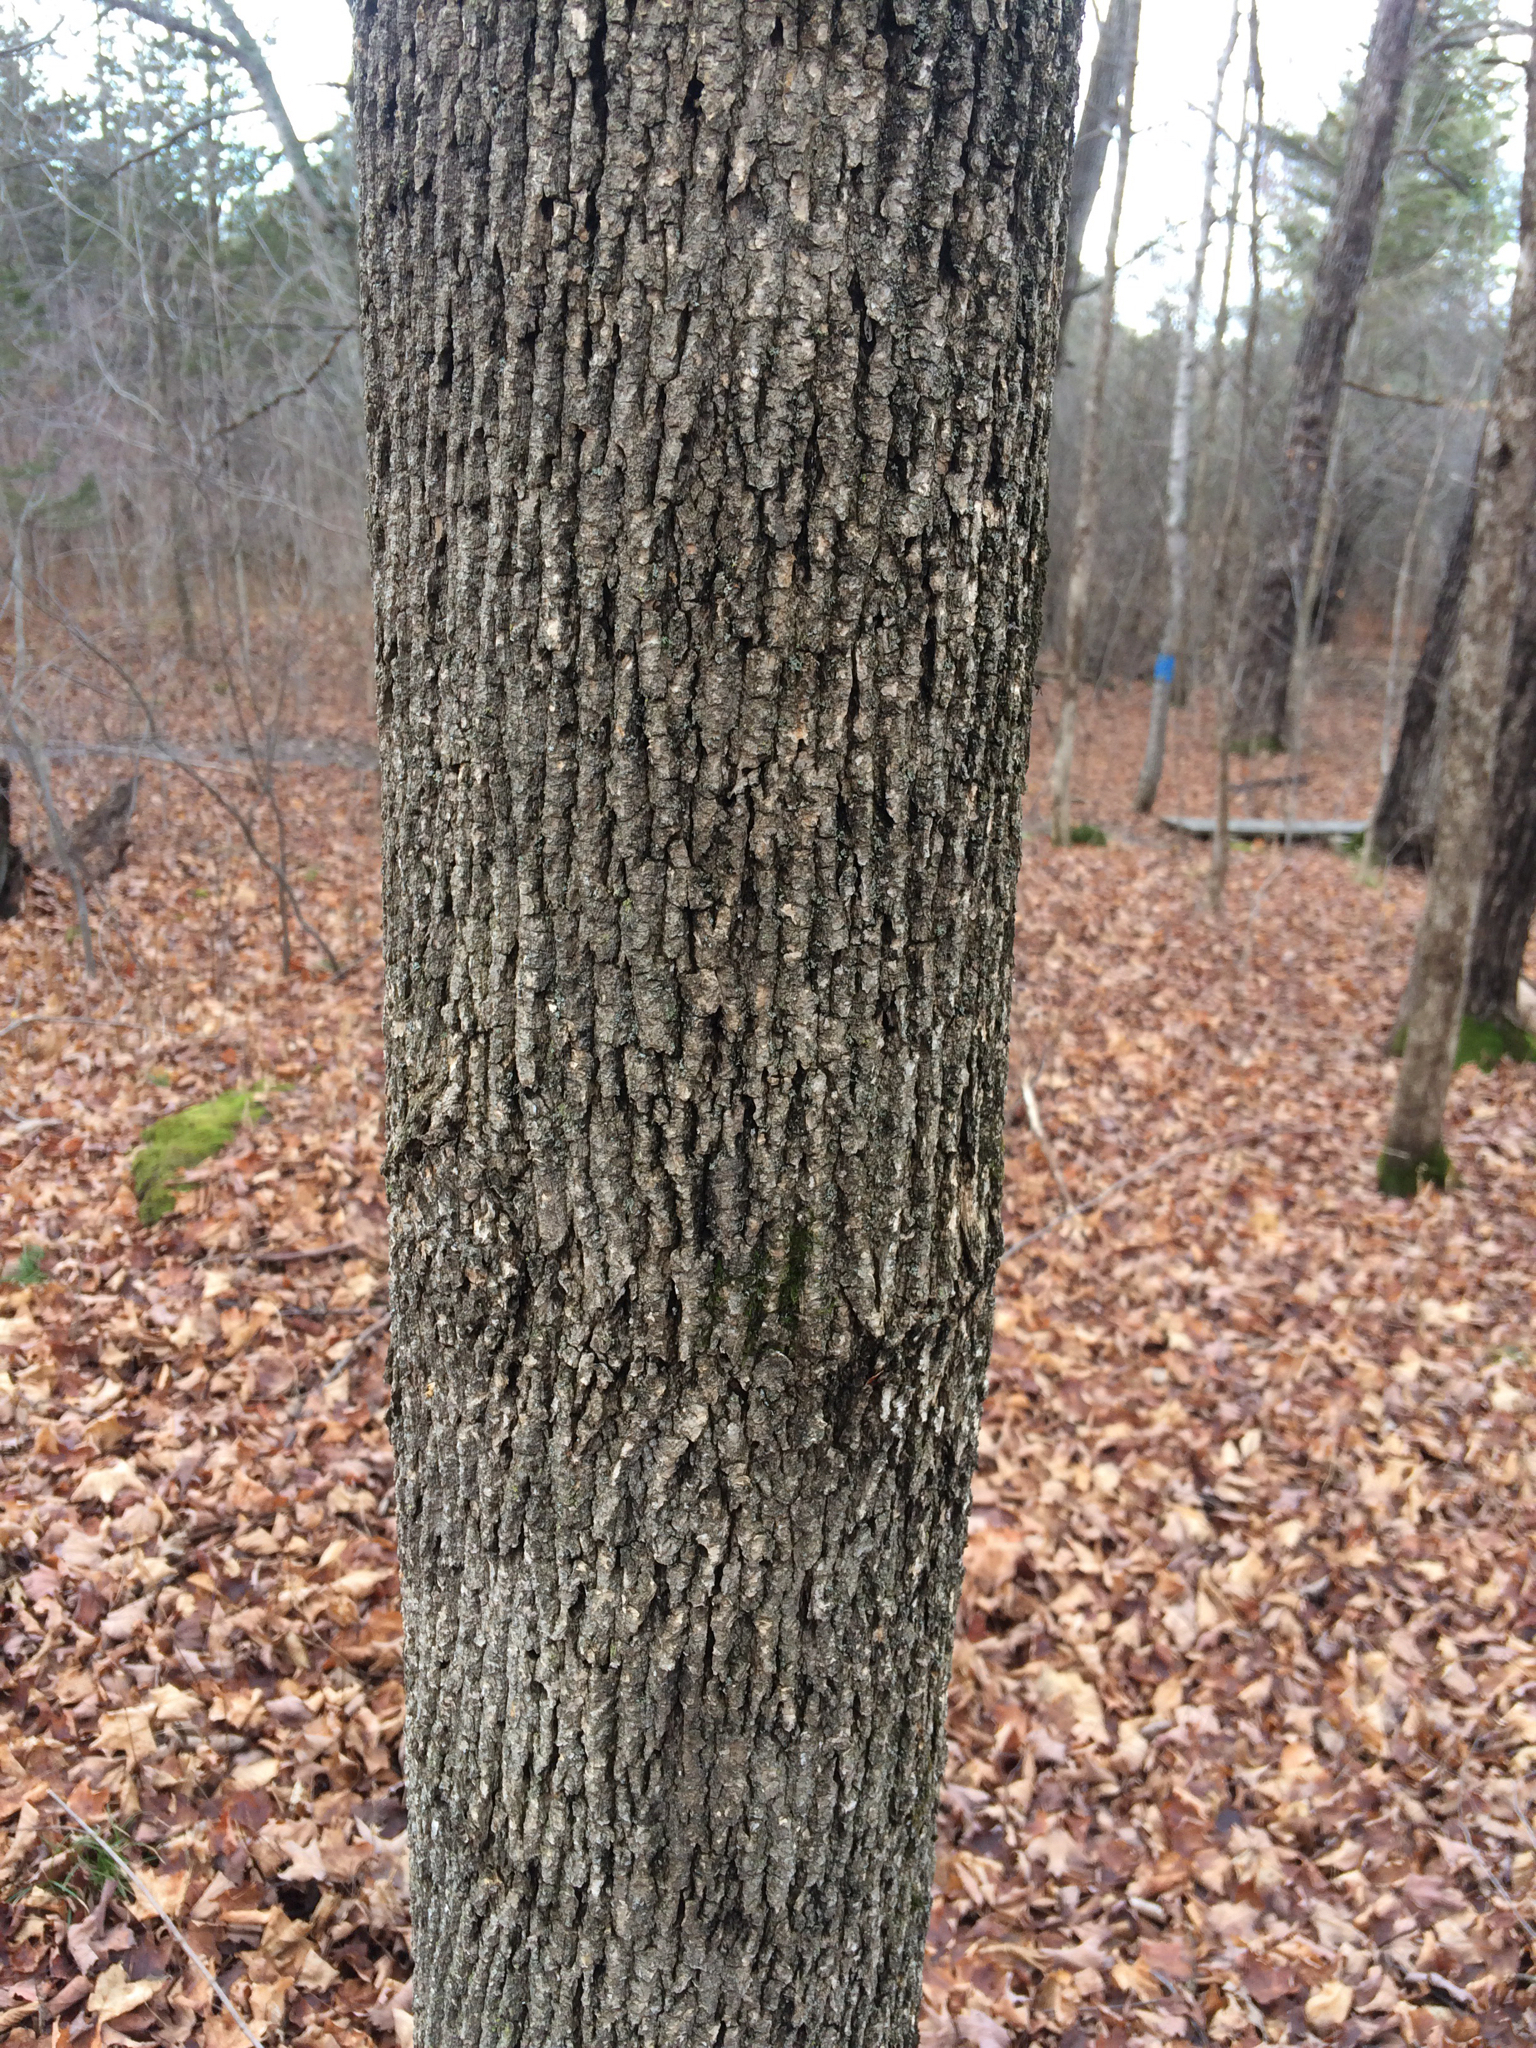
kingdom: Plantae
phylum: Tracheophyta
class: Magnoliopsida
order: Lamiales
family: Oleaceae
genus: Fraxinus
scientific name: Fraxinus americana
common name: White ash
